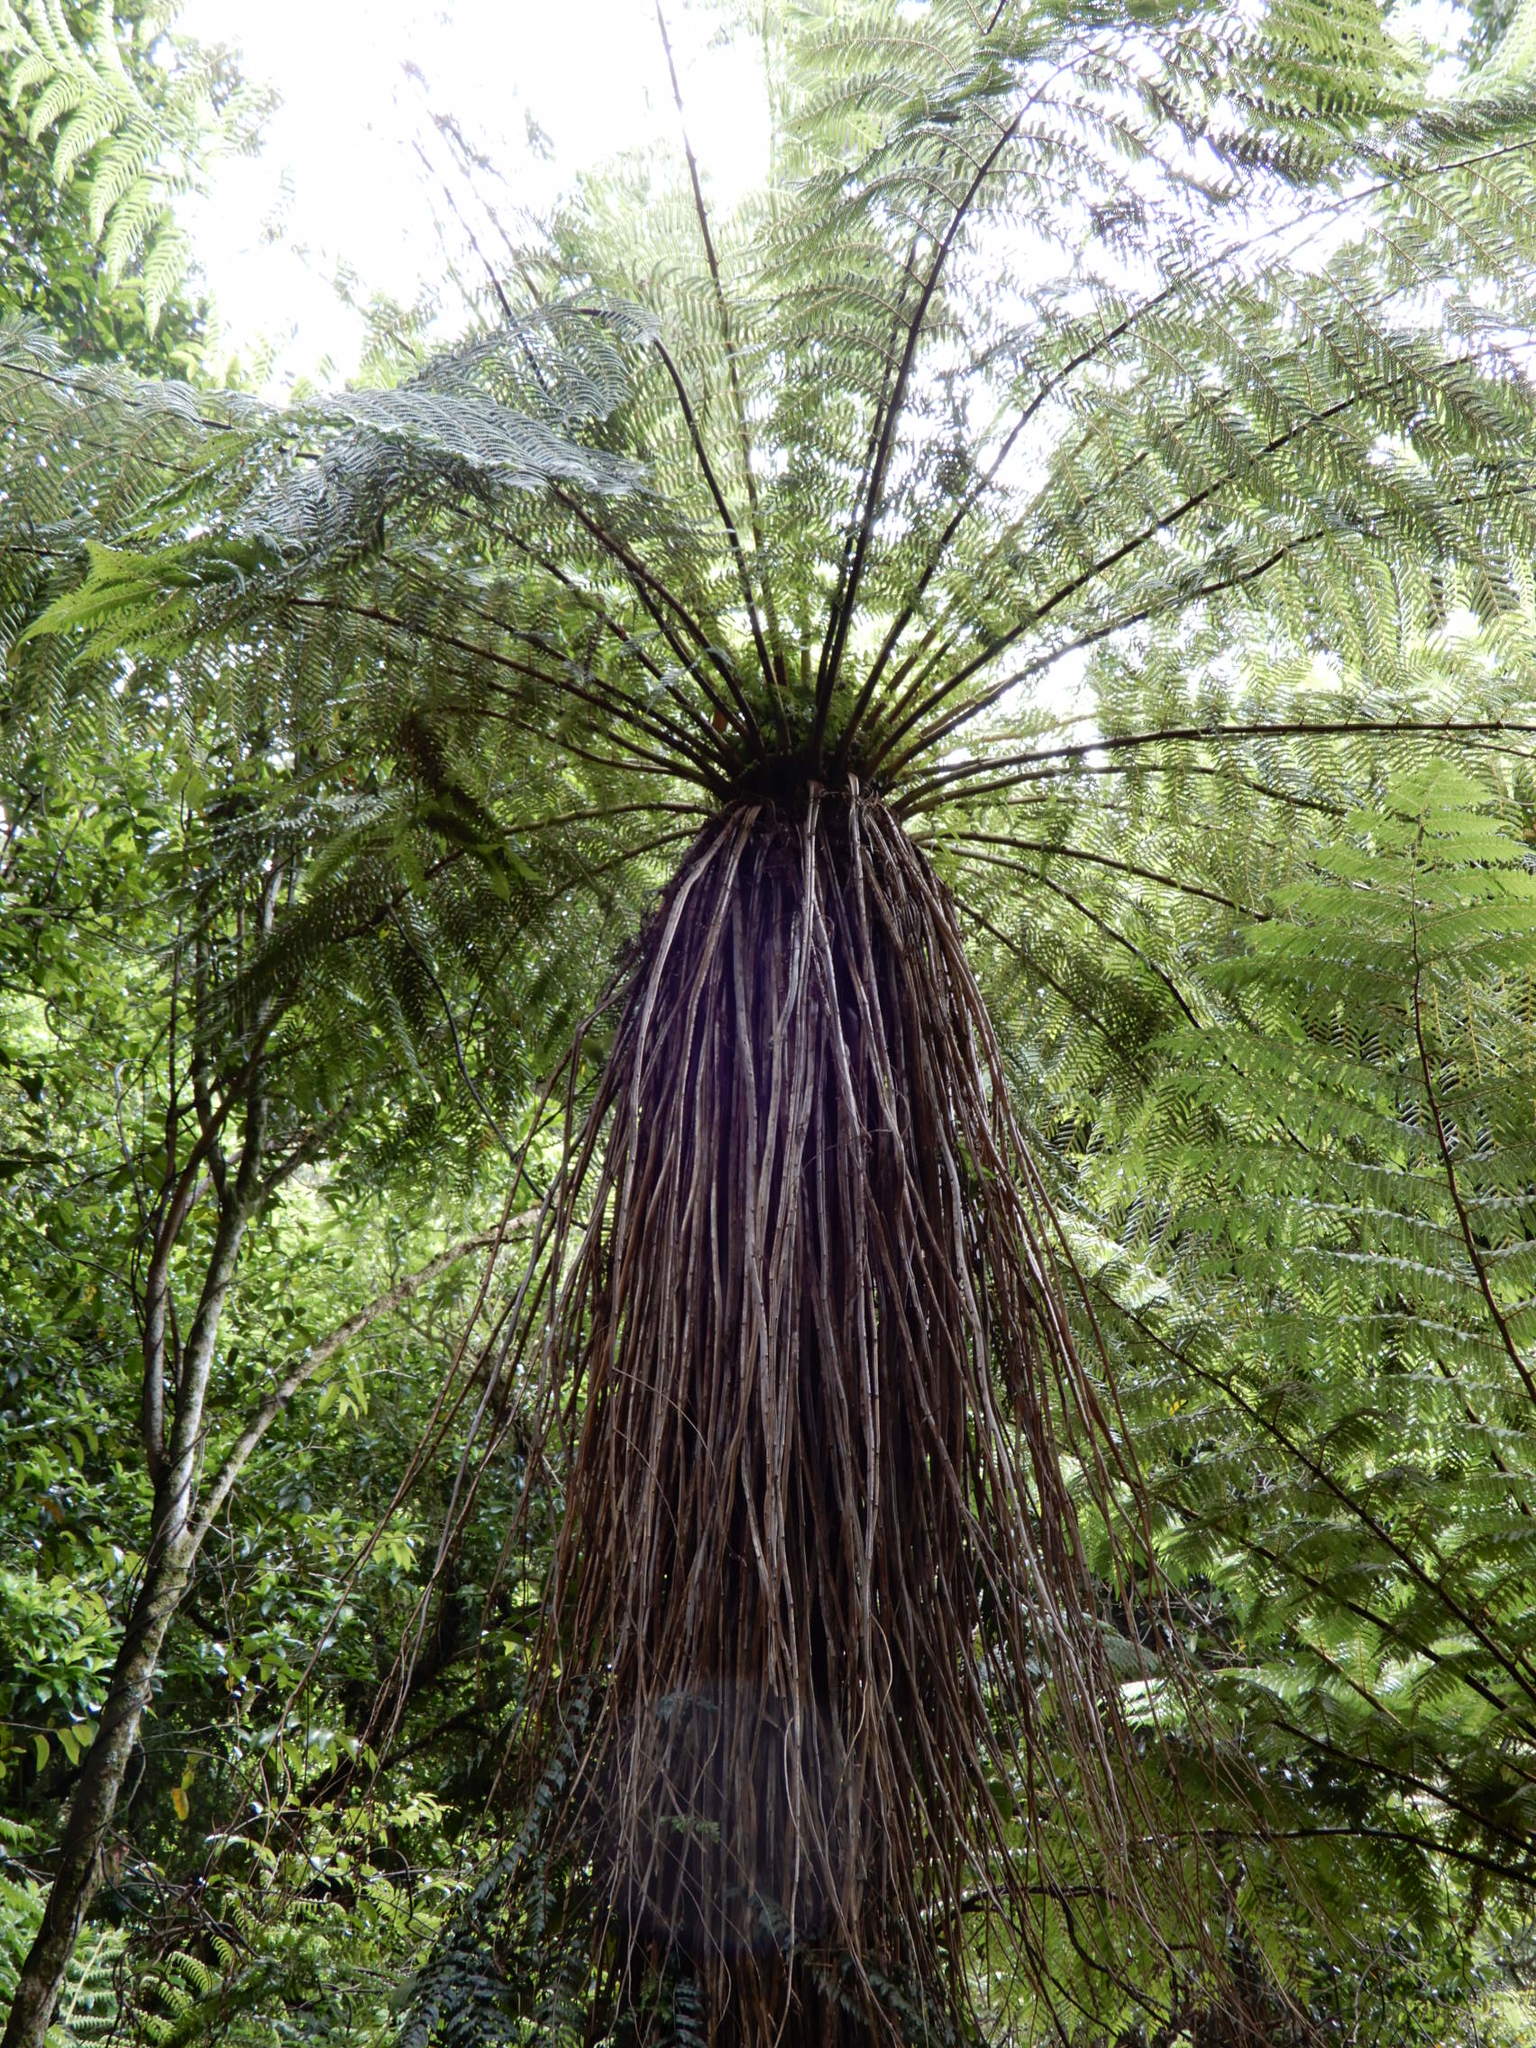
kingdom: Plantae
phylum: Tracheophyta
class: Polypodiopsida
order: Cyatheales
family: Cyatheaceae
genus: Alsophila
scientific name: Alsophila smithii
